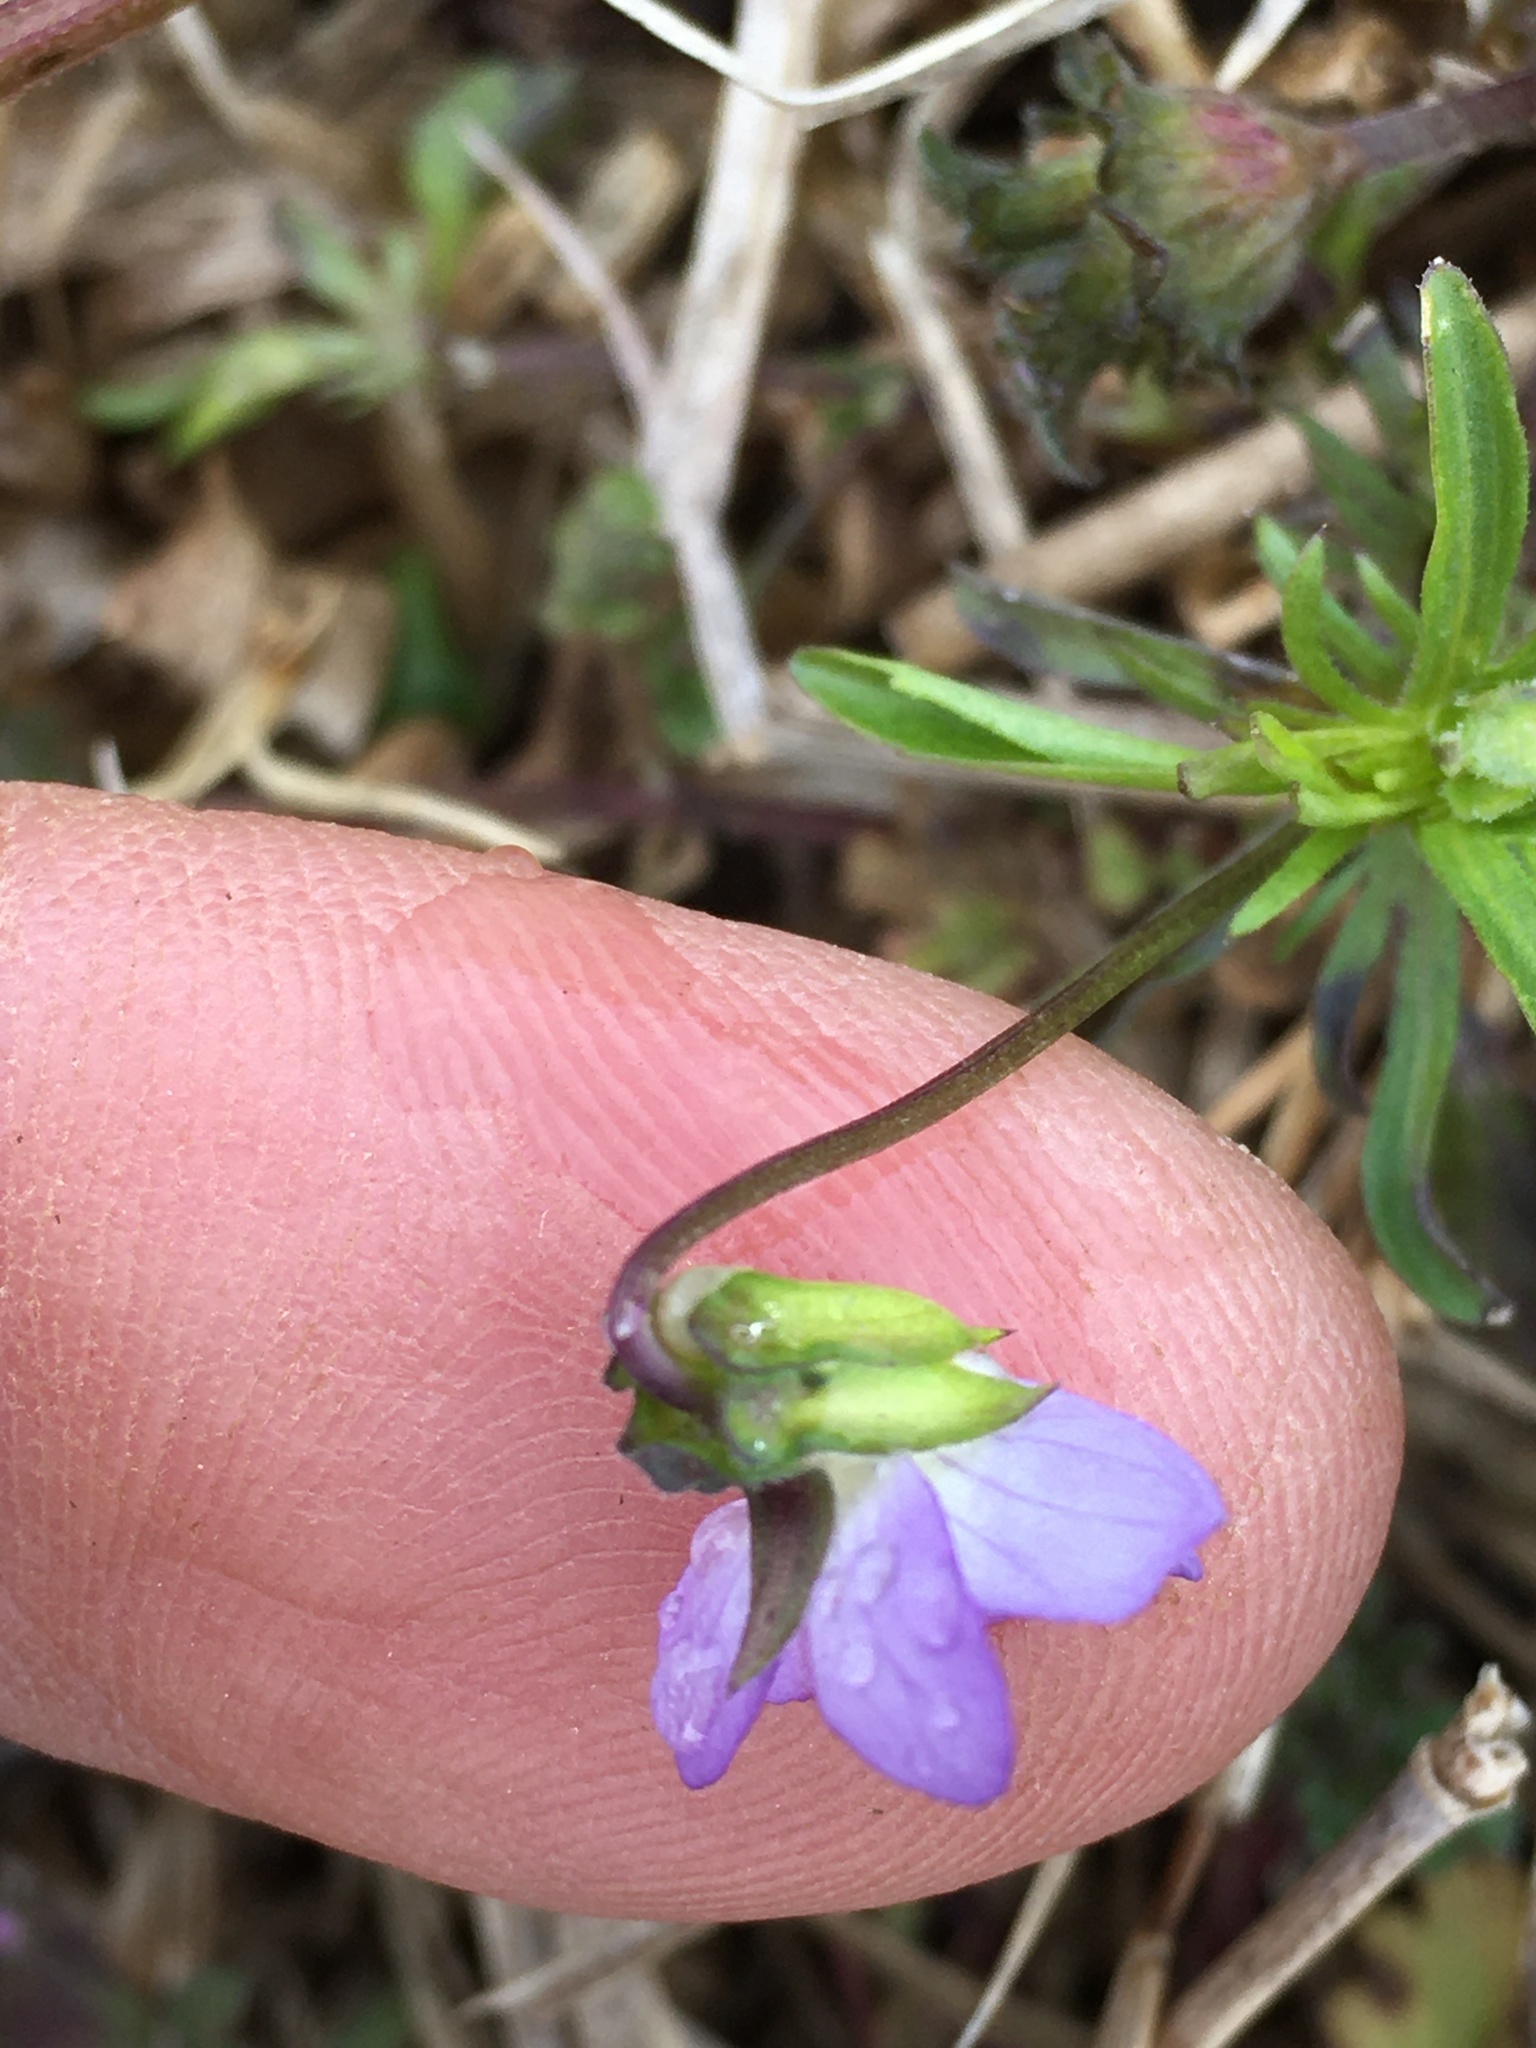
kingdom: Plantae
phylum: Tracheophyta
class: Magnoliopsida
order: Malpighiales
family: Violaceae
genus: Viola
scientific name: Viola rafinesquei
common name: American field pansy
